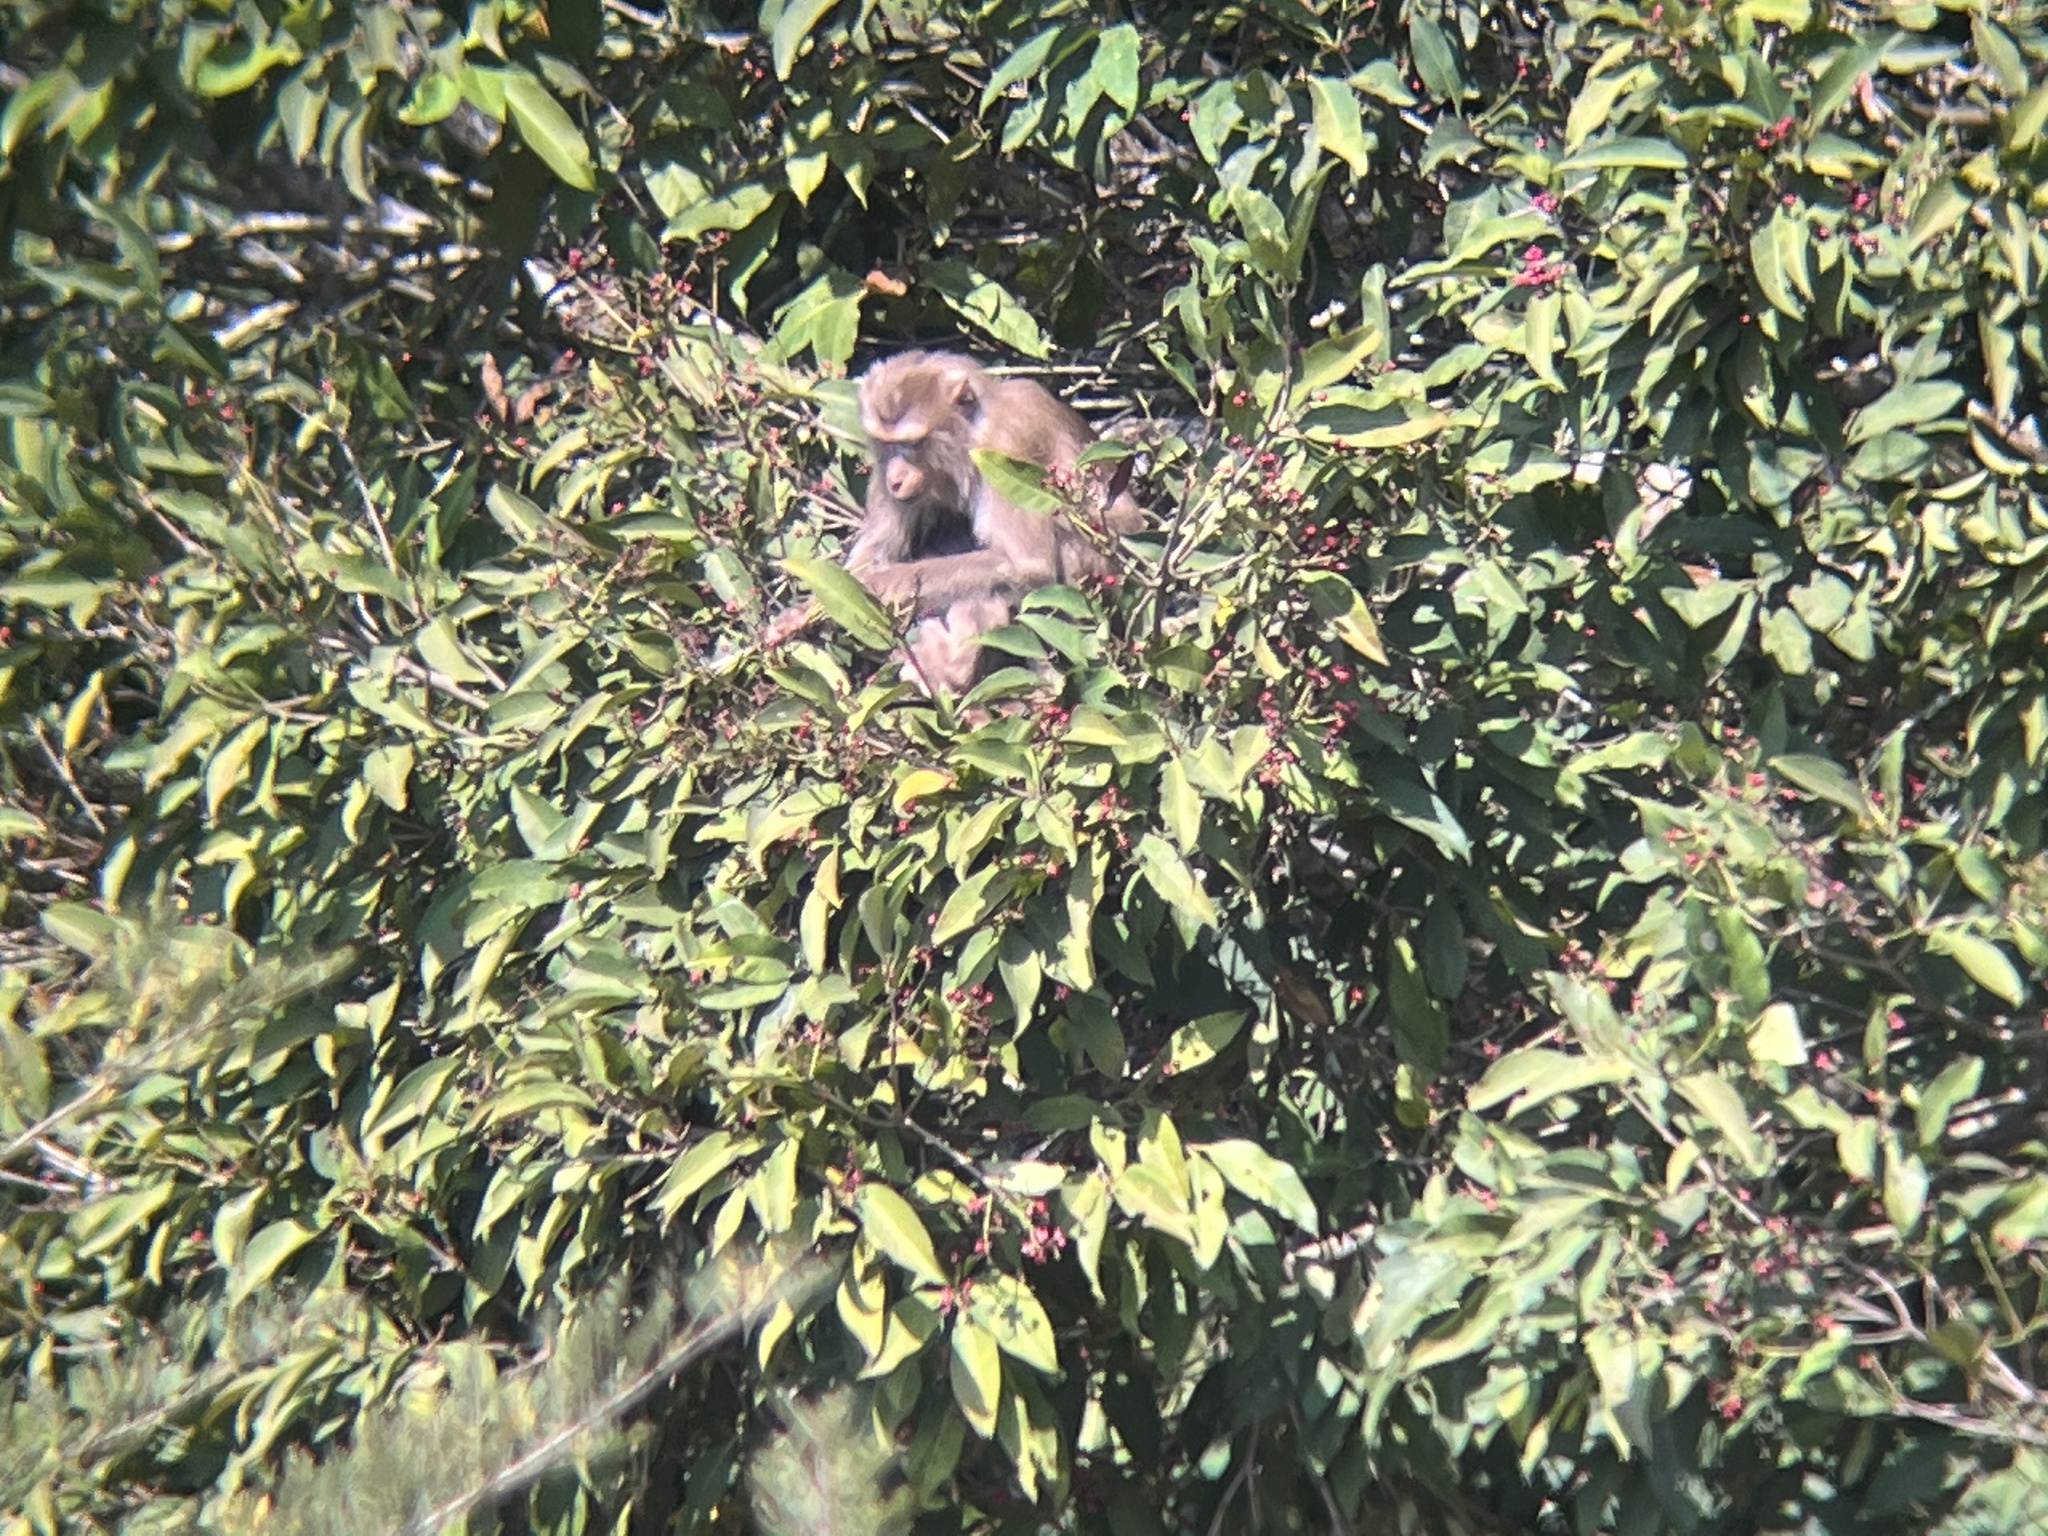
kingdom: Animalia
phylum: Chordata
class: Mammalia
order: Primates
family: Cercopithecidae
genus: Macaca
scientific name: Macaca leonina
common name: Northern pig-tailed macaque
